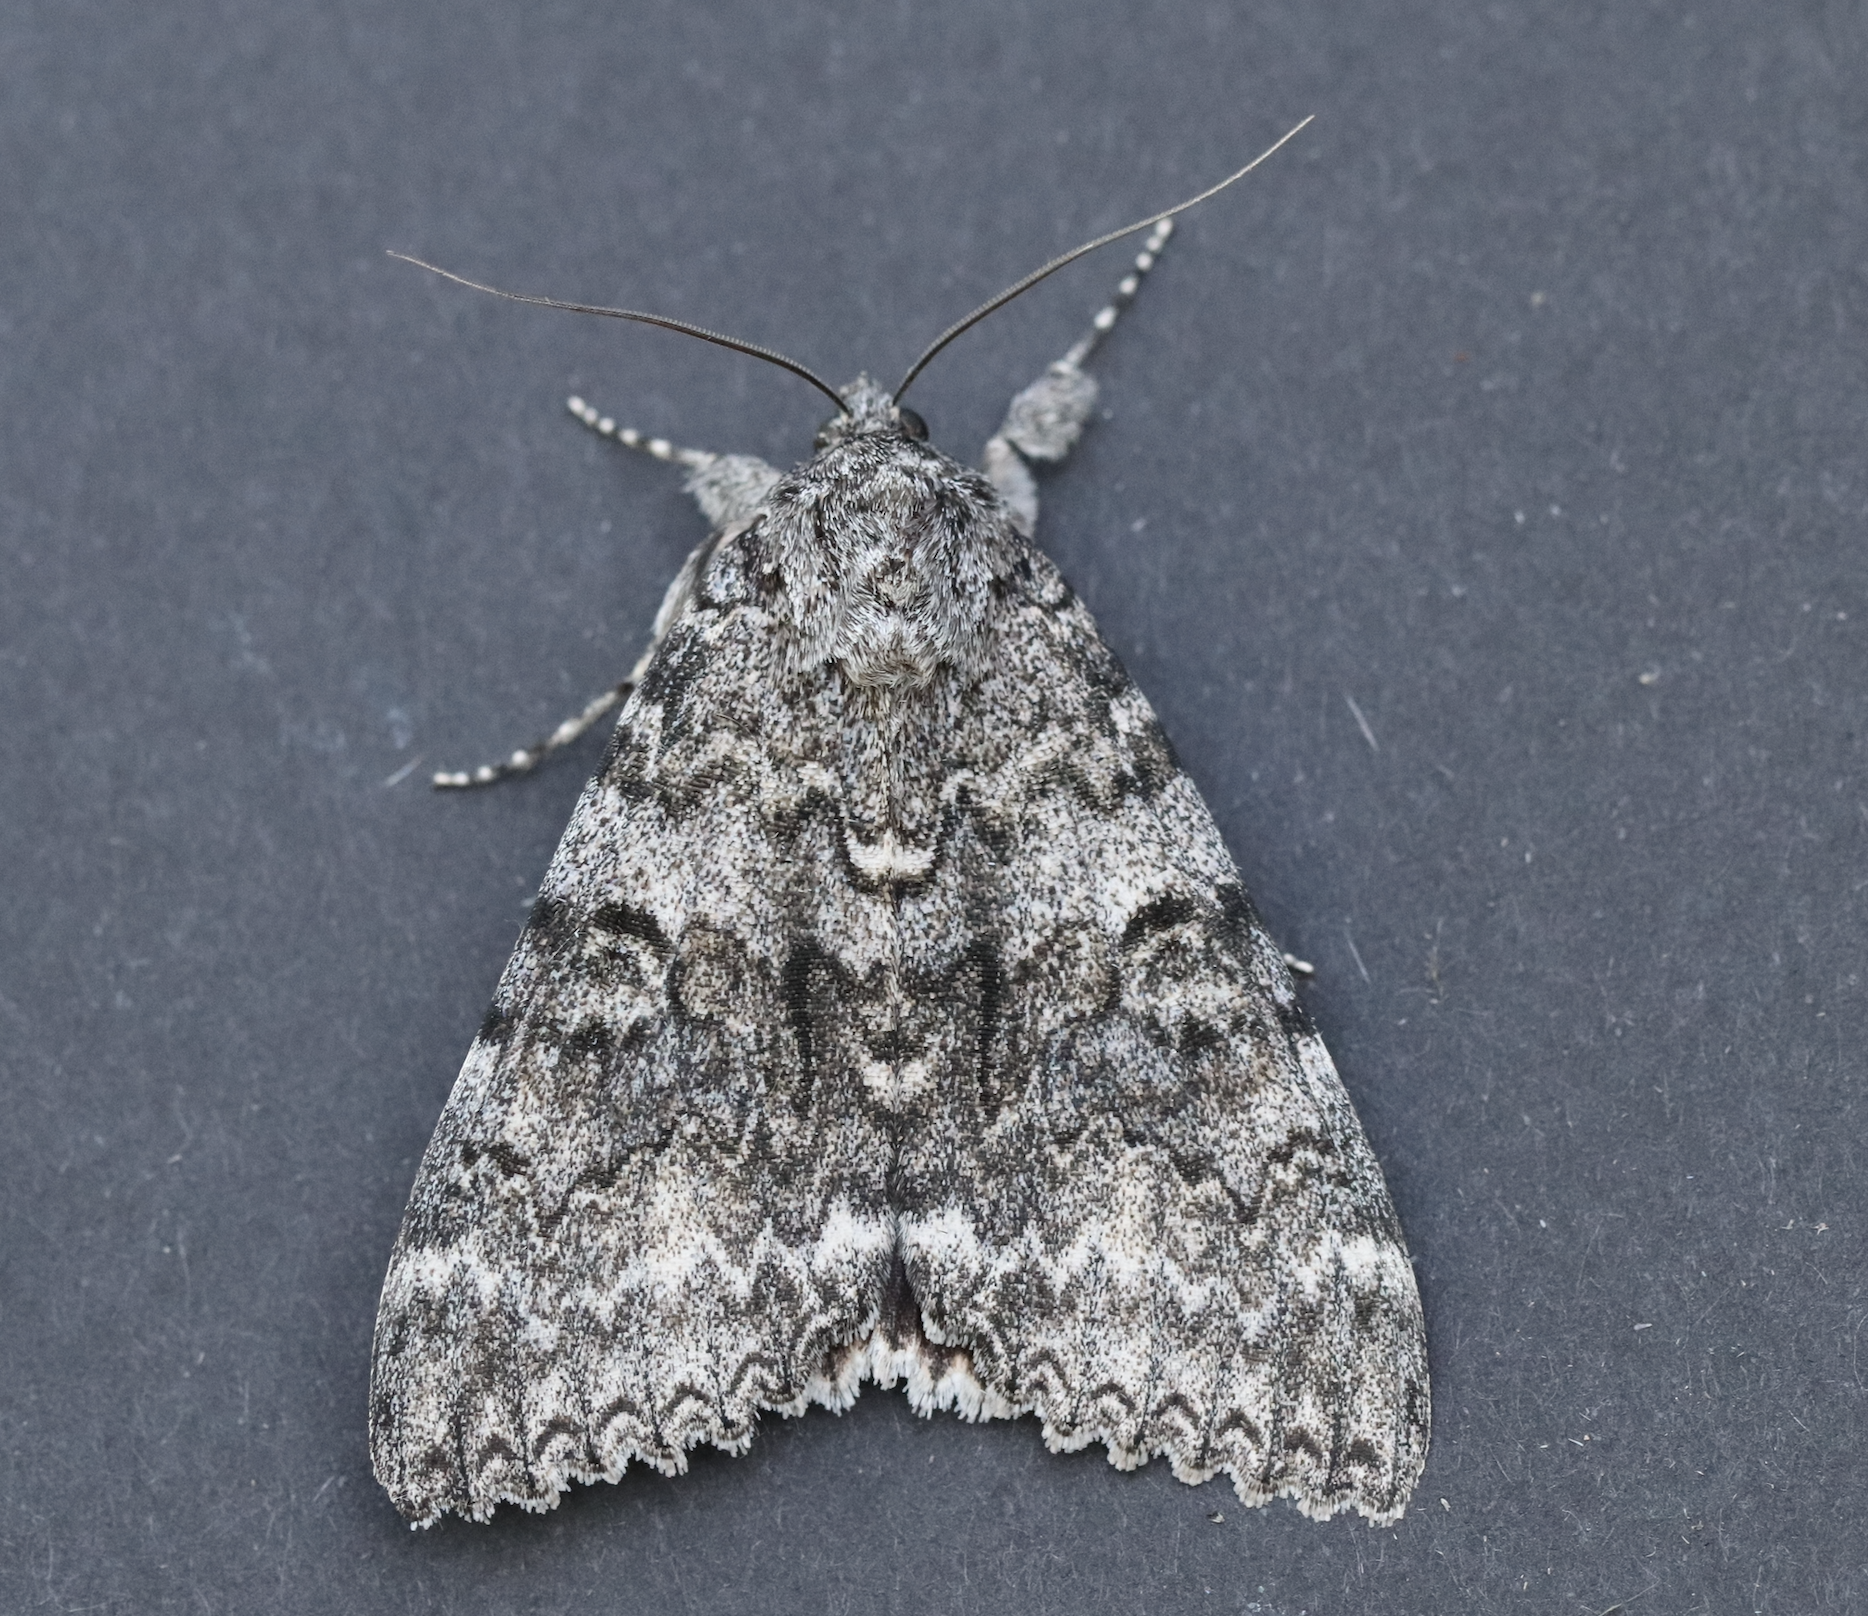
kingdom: Animalia
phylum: Arthropoda
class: Insecta
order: Lepidoptera
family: Erebidae
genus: Catocala
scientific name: Catocala unijuga
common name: Once-married underwing
